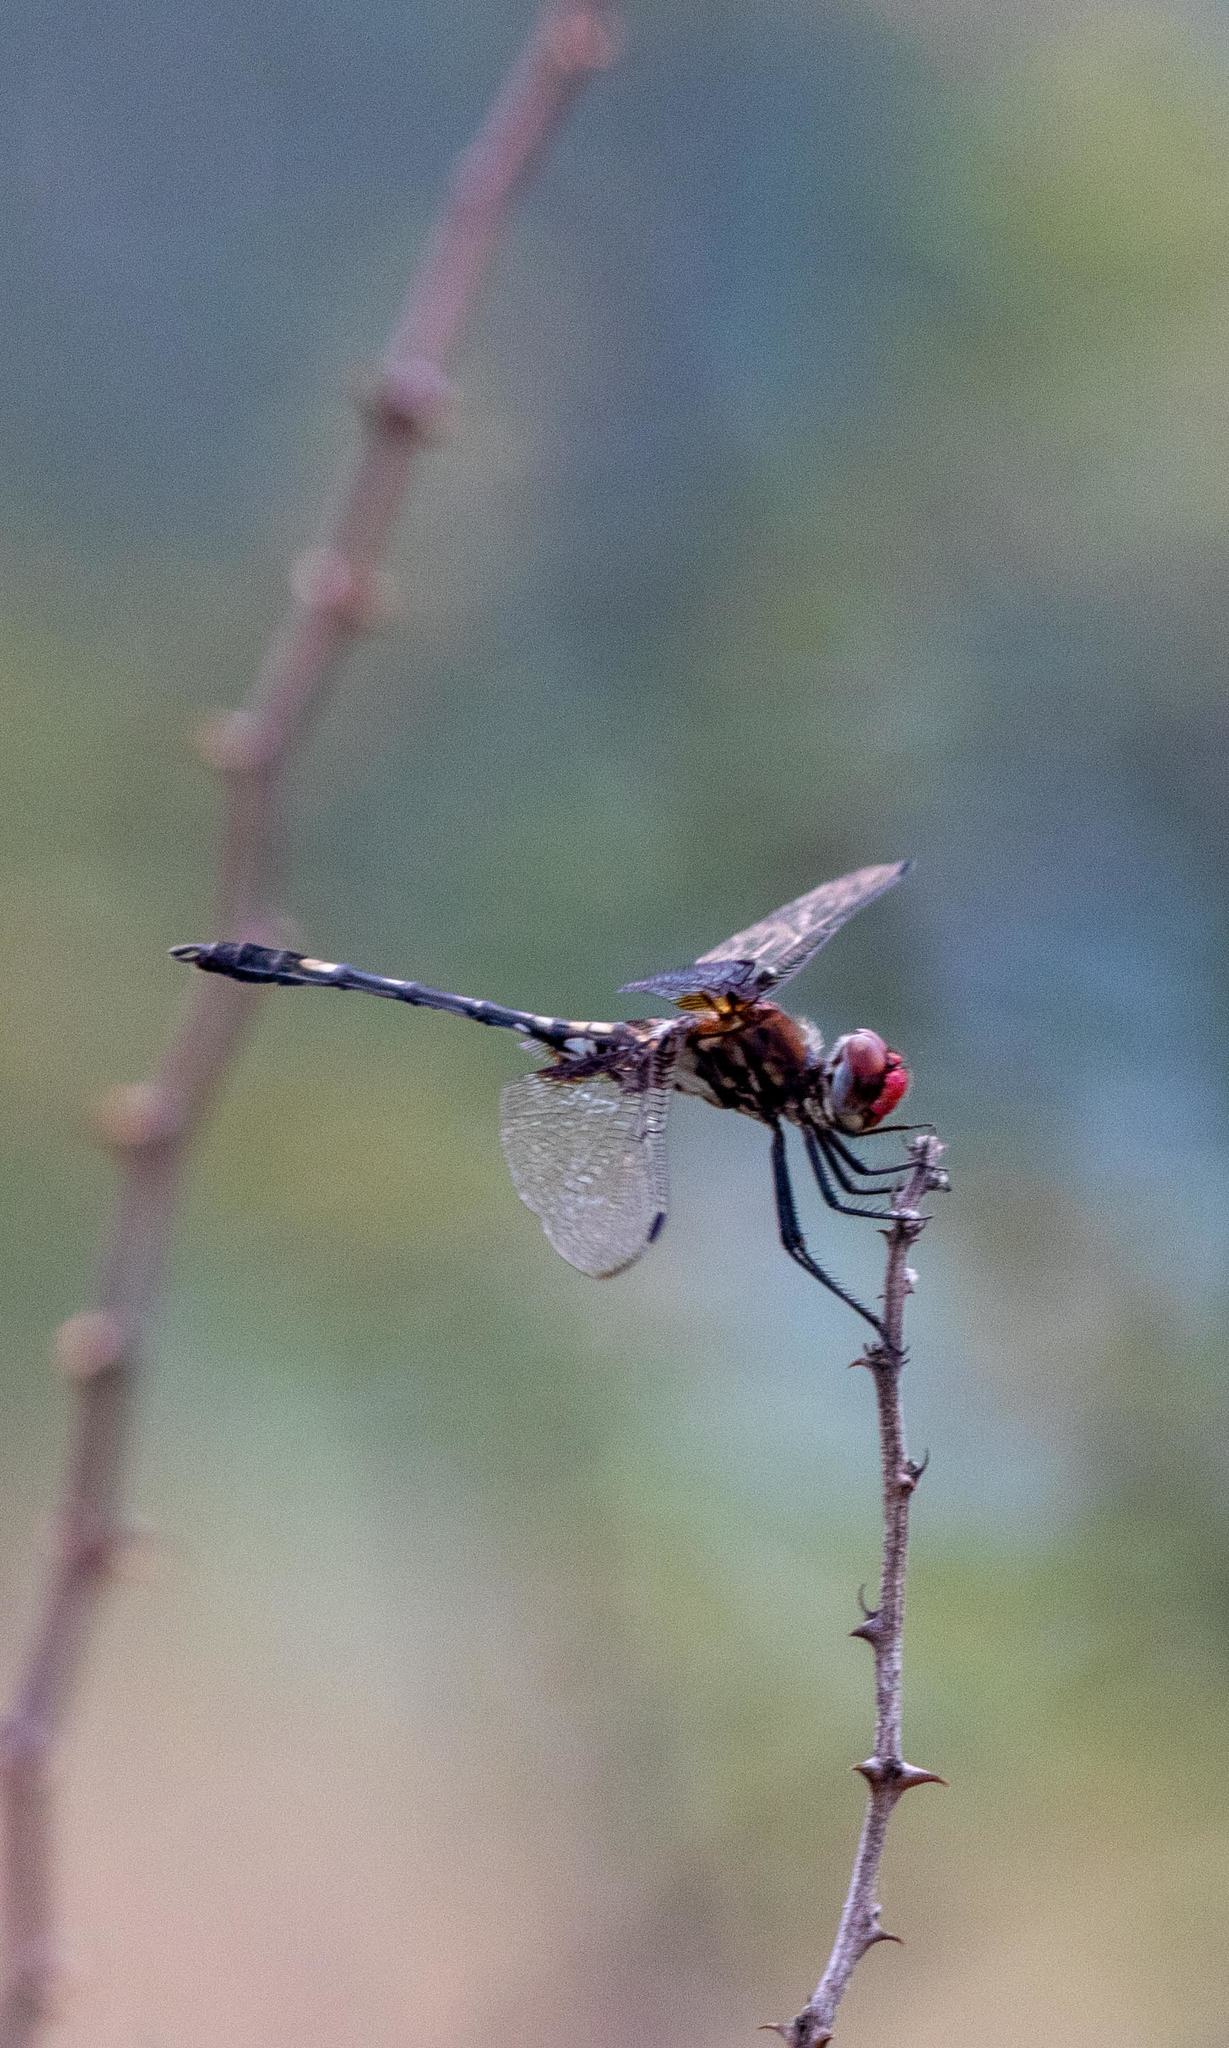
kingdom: Animalia
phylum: Arthropoda
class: Insecta
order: Odonata
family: Libellulidae
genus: Dythemis
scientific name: Dythemis fugax
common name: Checkered setwing
